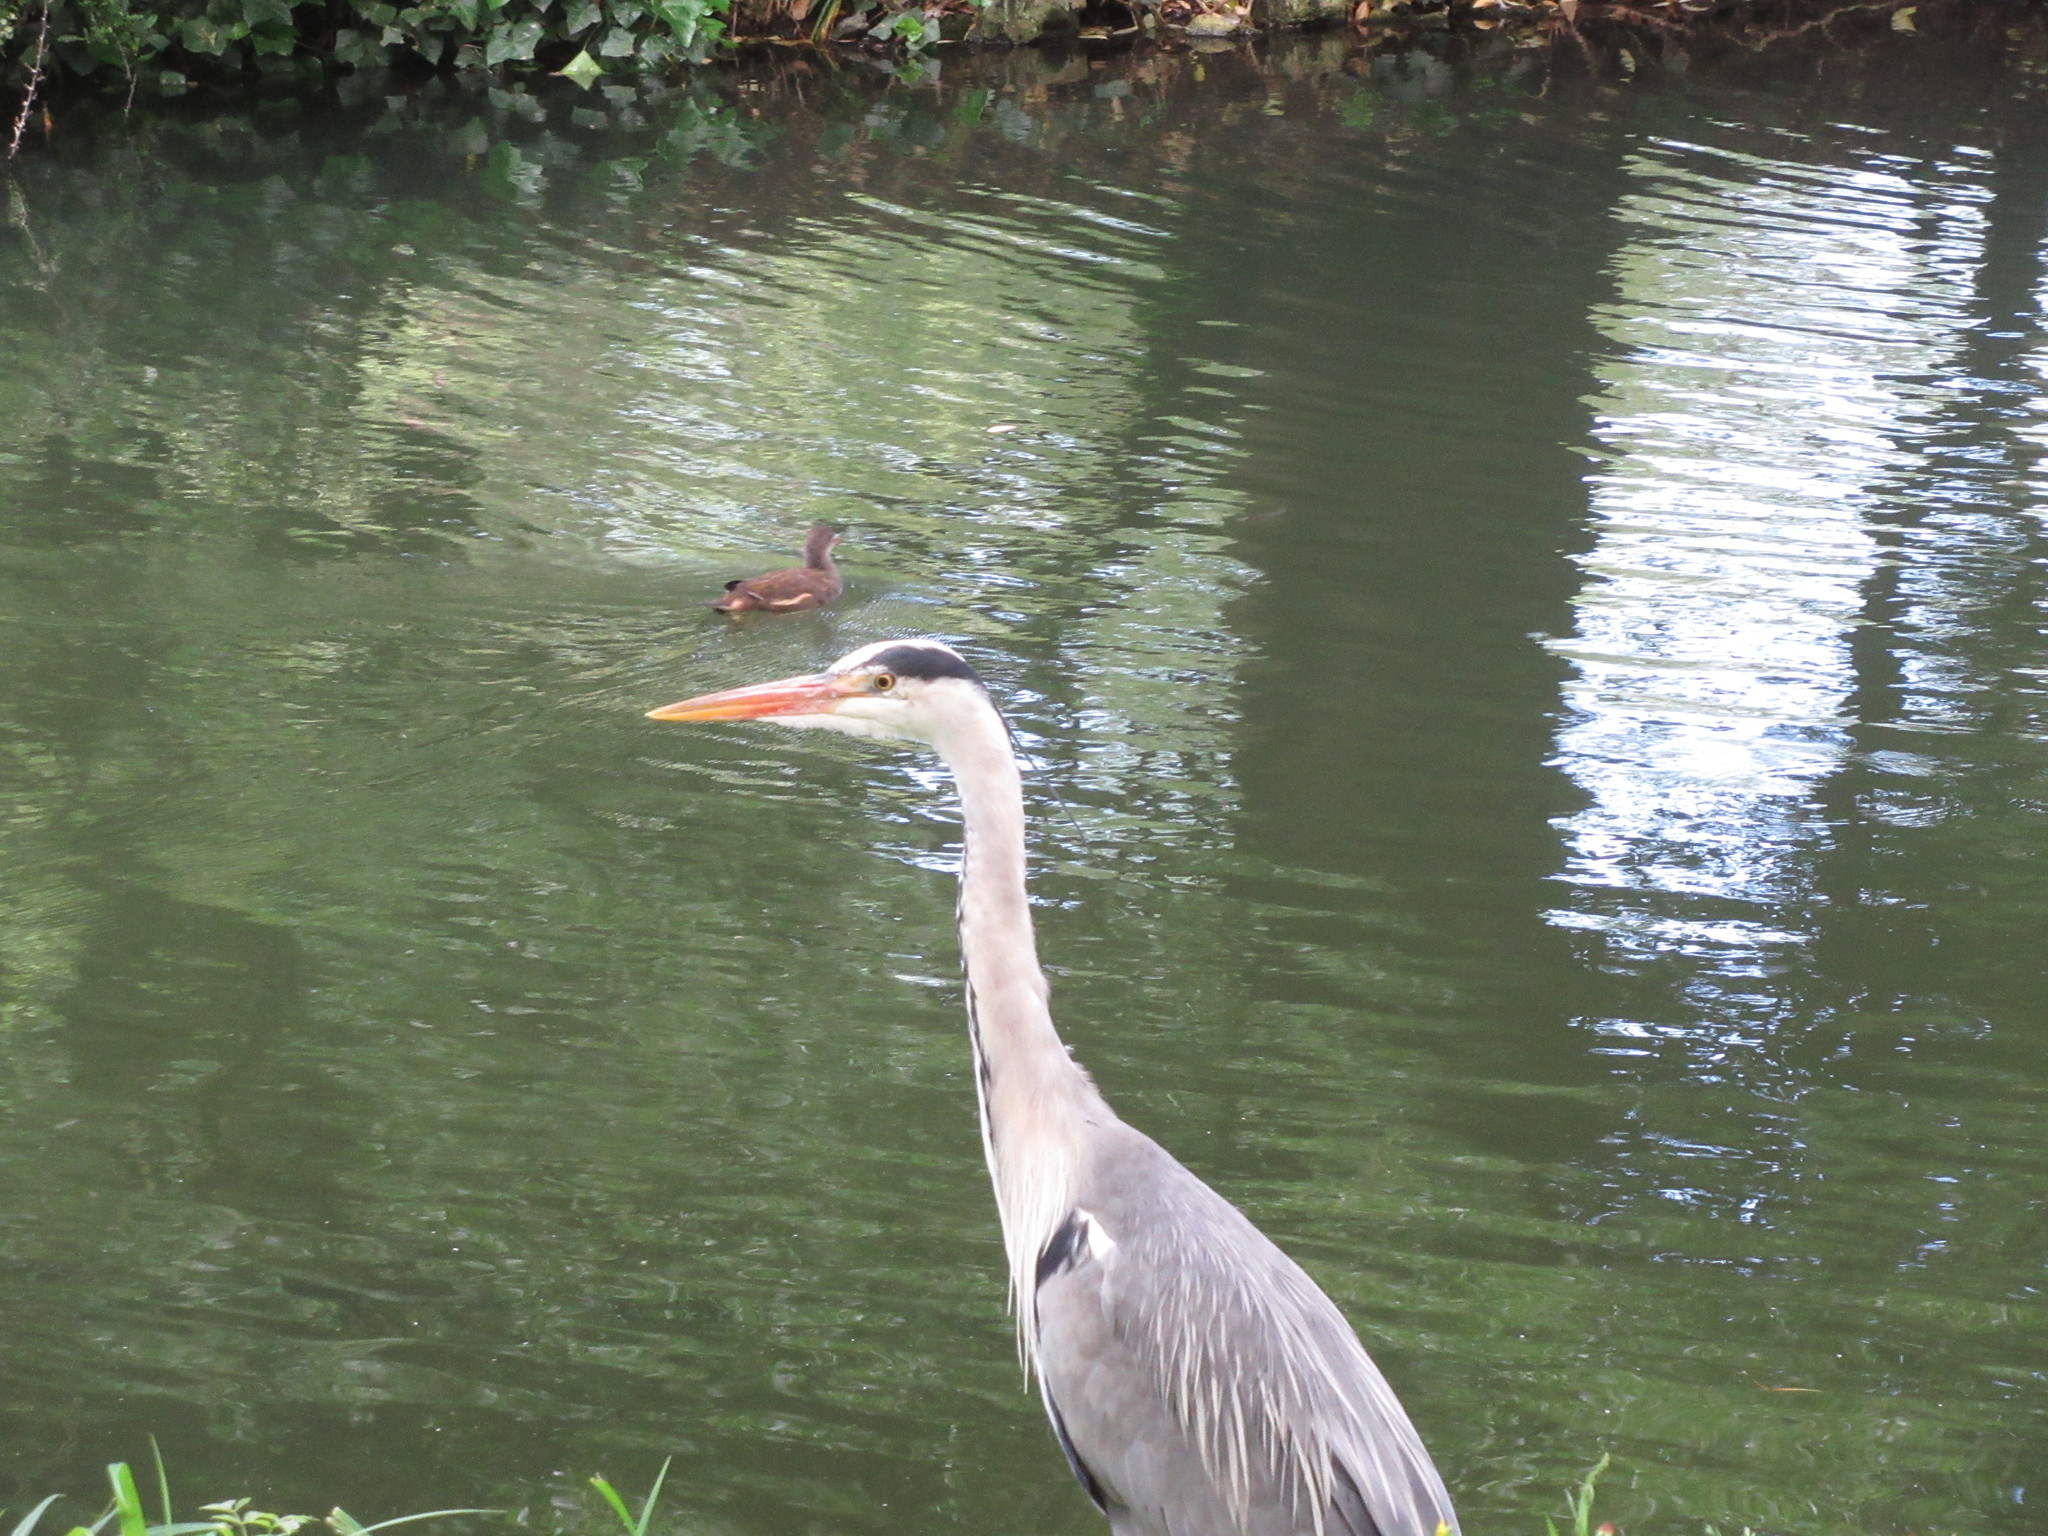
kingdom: Animalia
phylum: Chordata
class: Aves
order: Pelecaniformes
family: Ardeidae
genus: Ardea
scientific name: Ardea cinerea
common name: Grey heron
